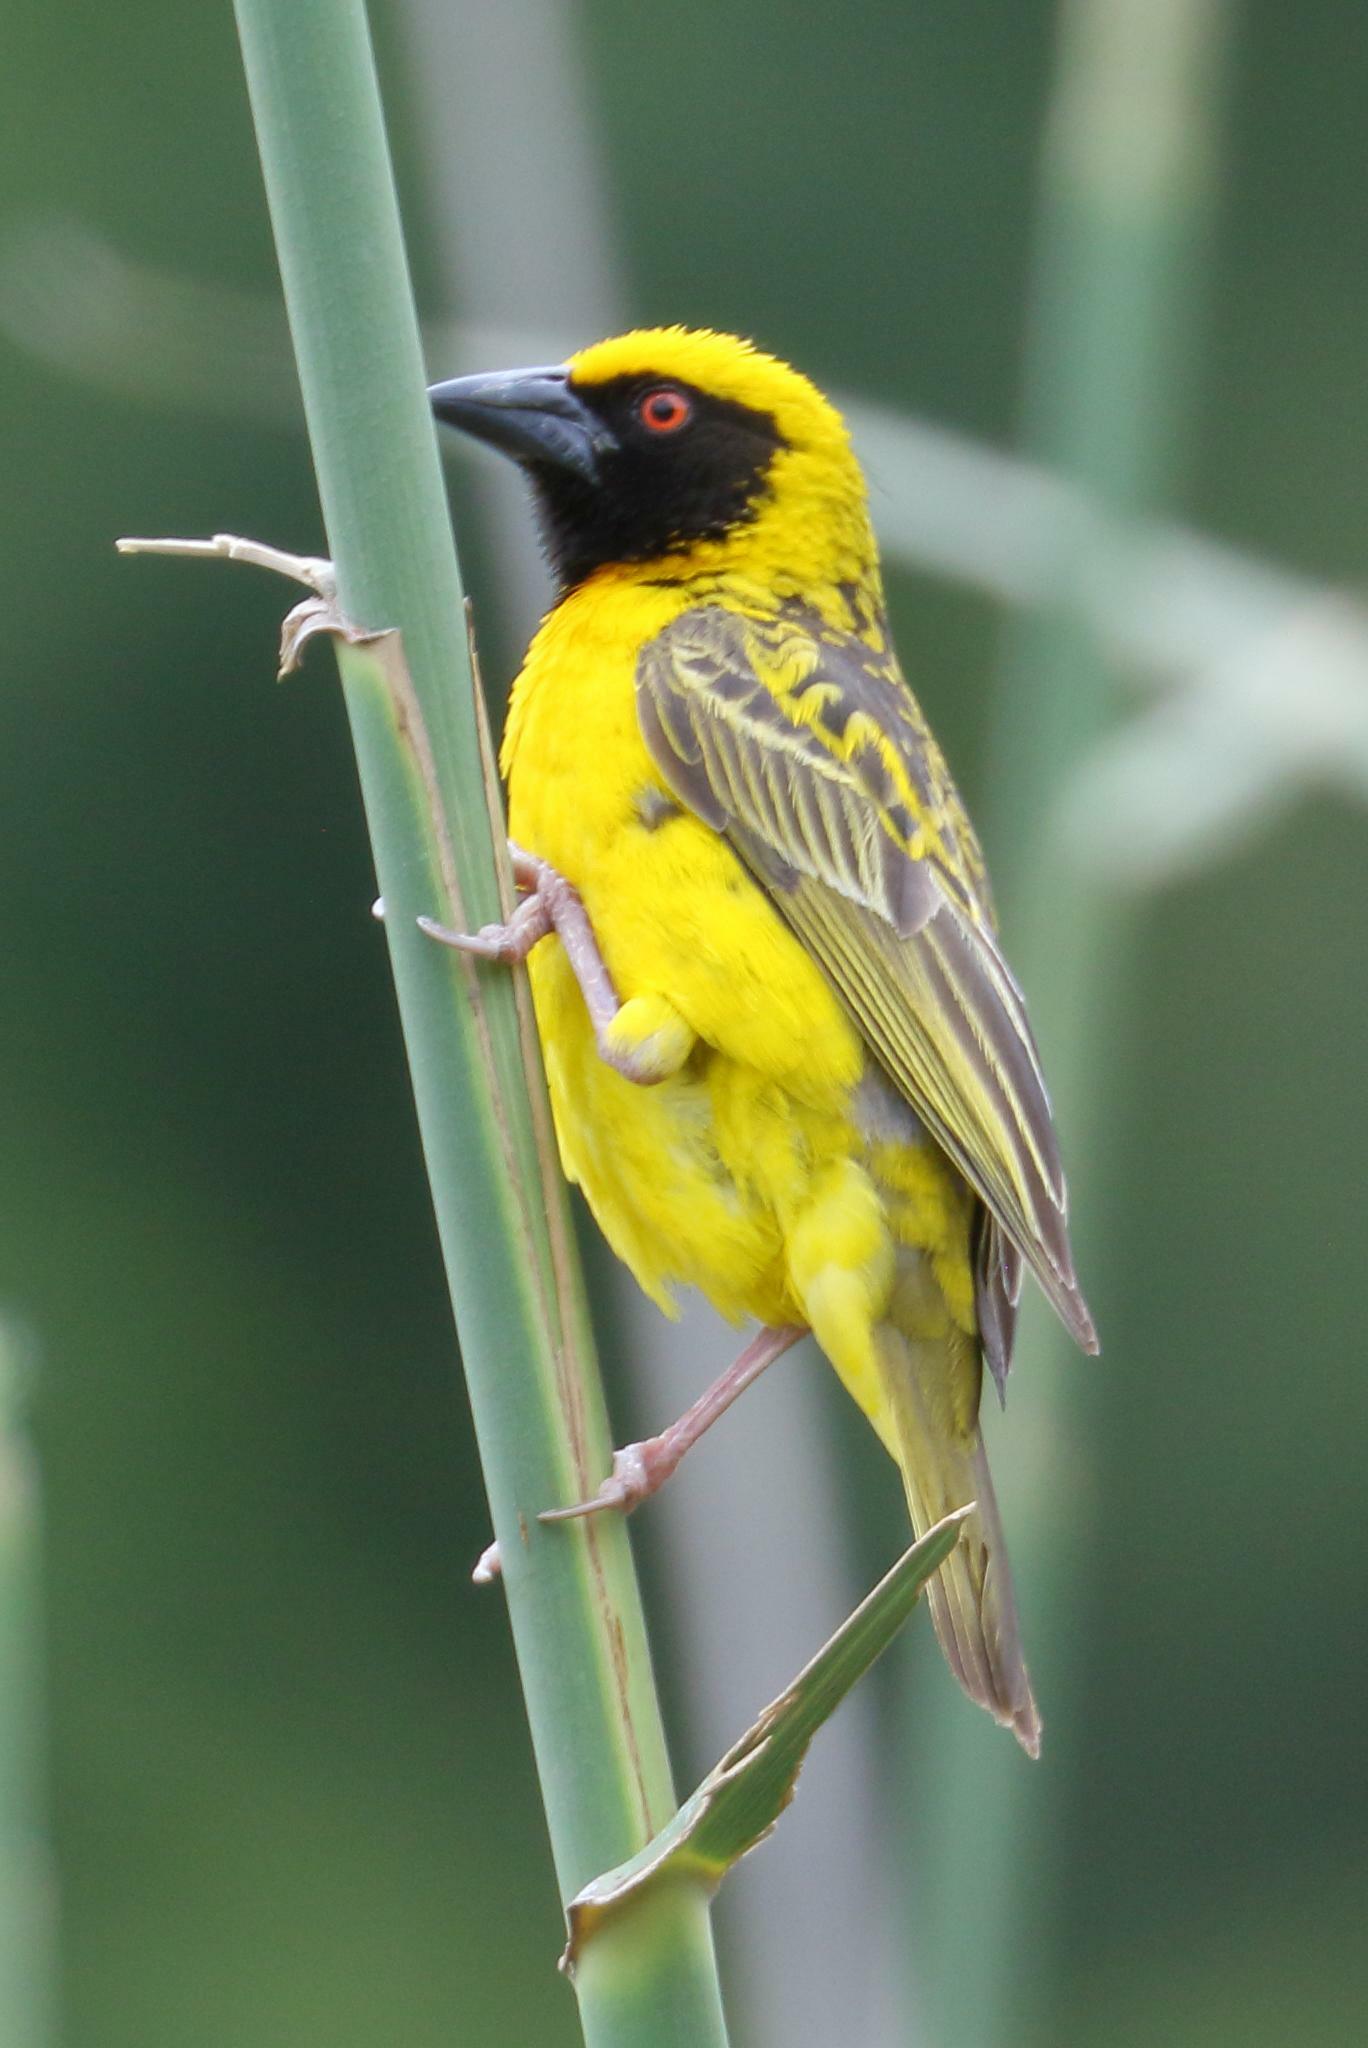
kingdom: Animalia
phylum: Chordata
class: Aves
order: Passeriformes
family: Ploceidae
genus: Ploceus
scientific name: Ploceus cucullatus
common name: Village weaver
